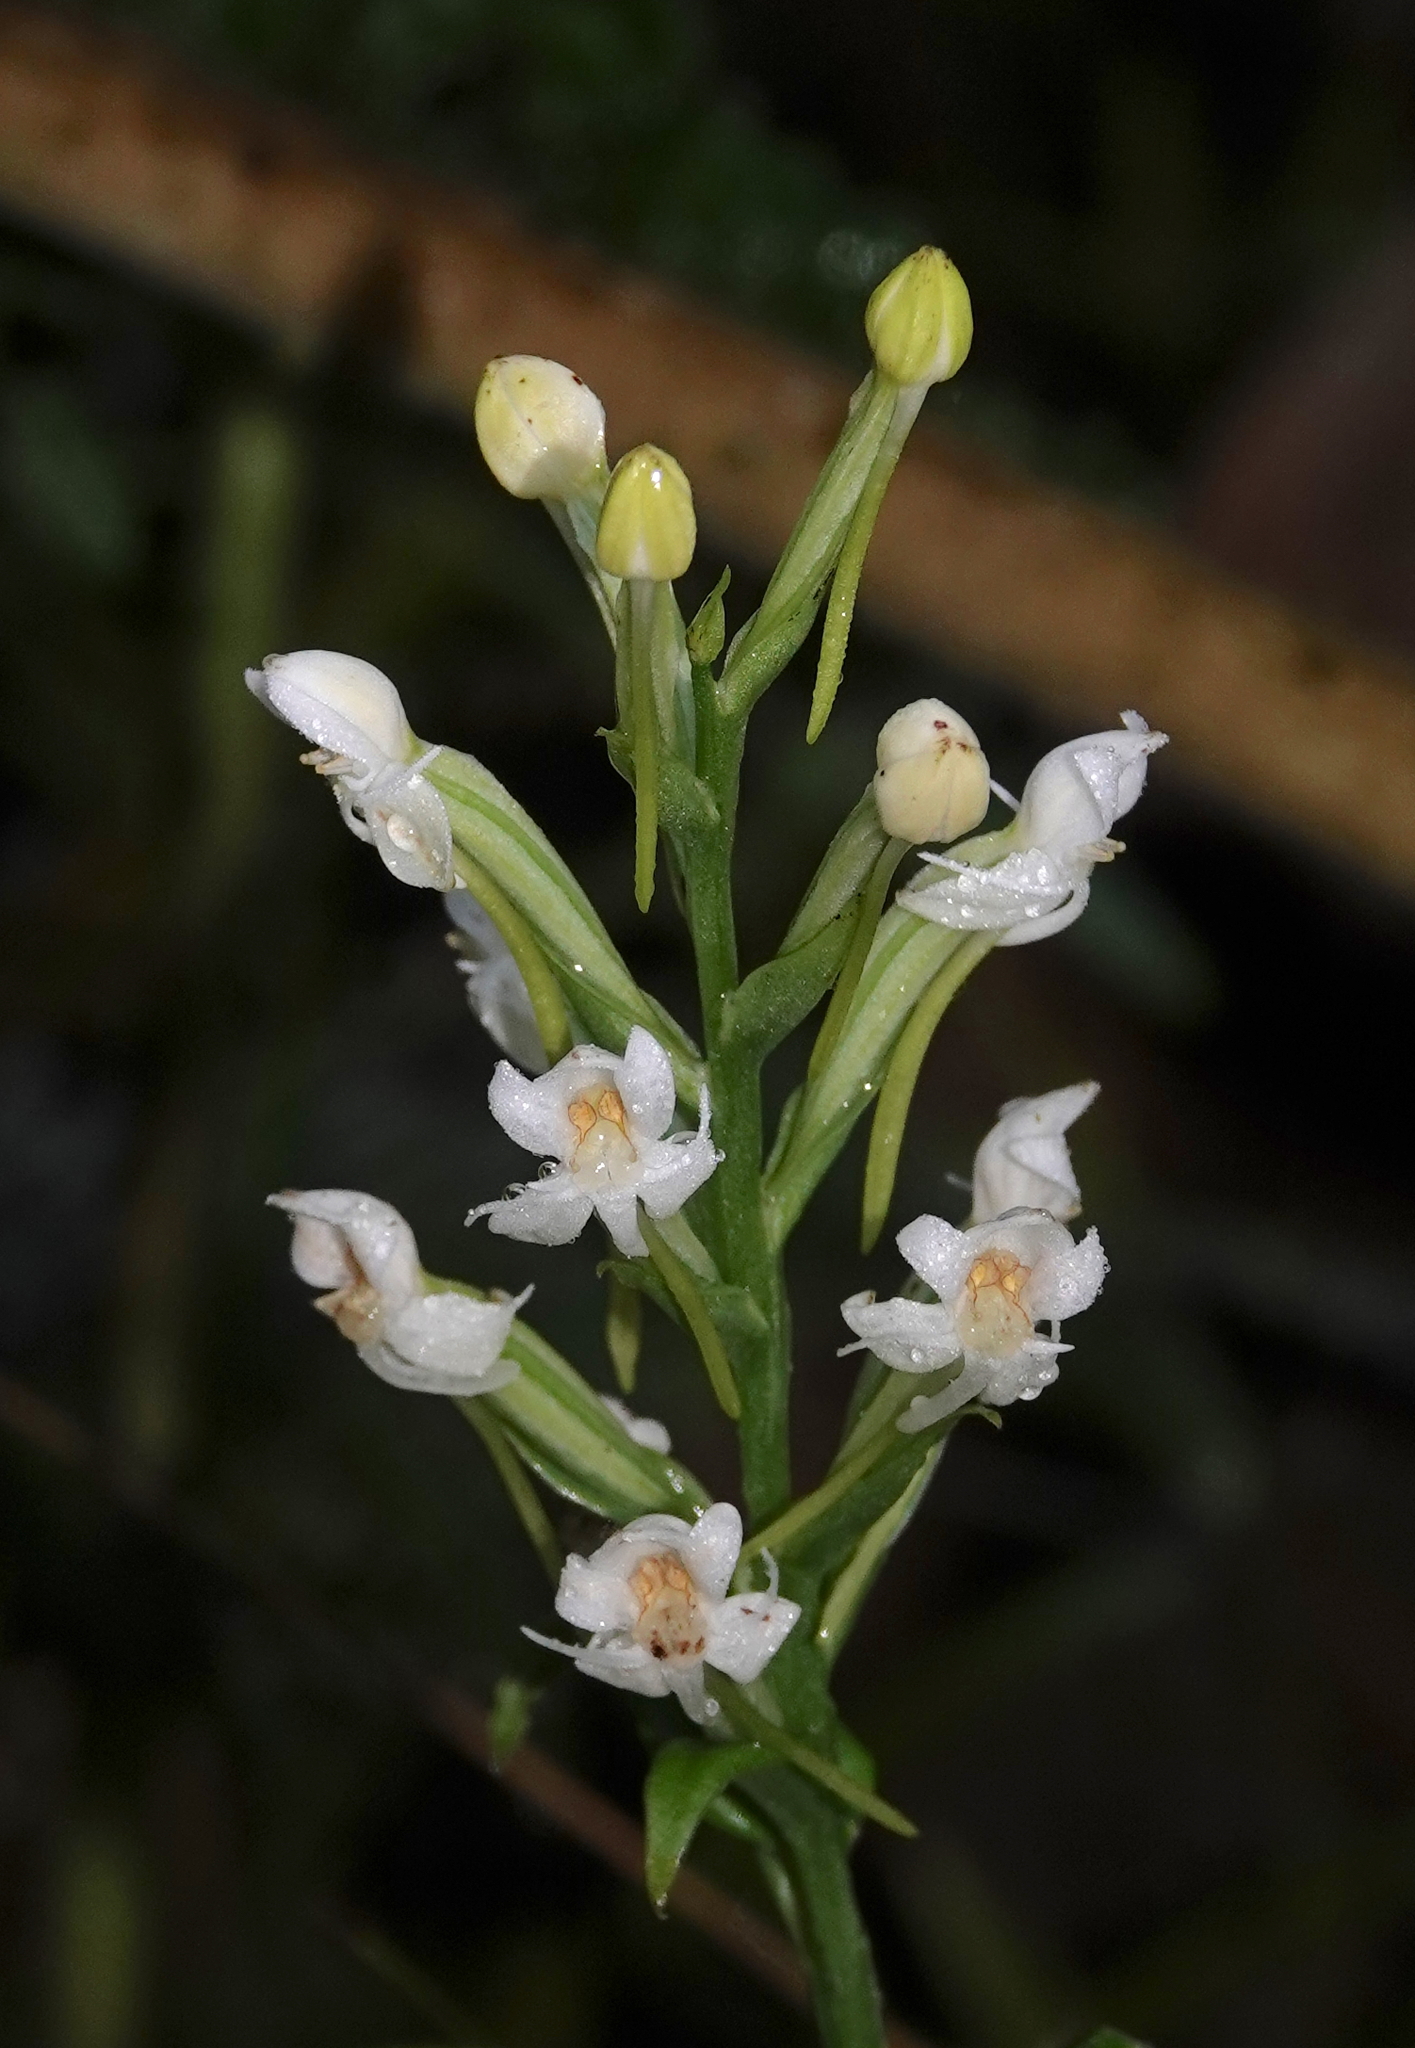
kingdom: Plantae
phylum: Tracheophyta
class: Liliopsida
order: Asparagales
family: Orchidaceae
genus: Habenaria
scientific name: Habenaria monorrhiza
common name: Tropical bog orchid
